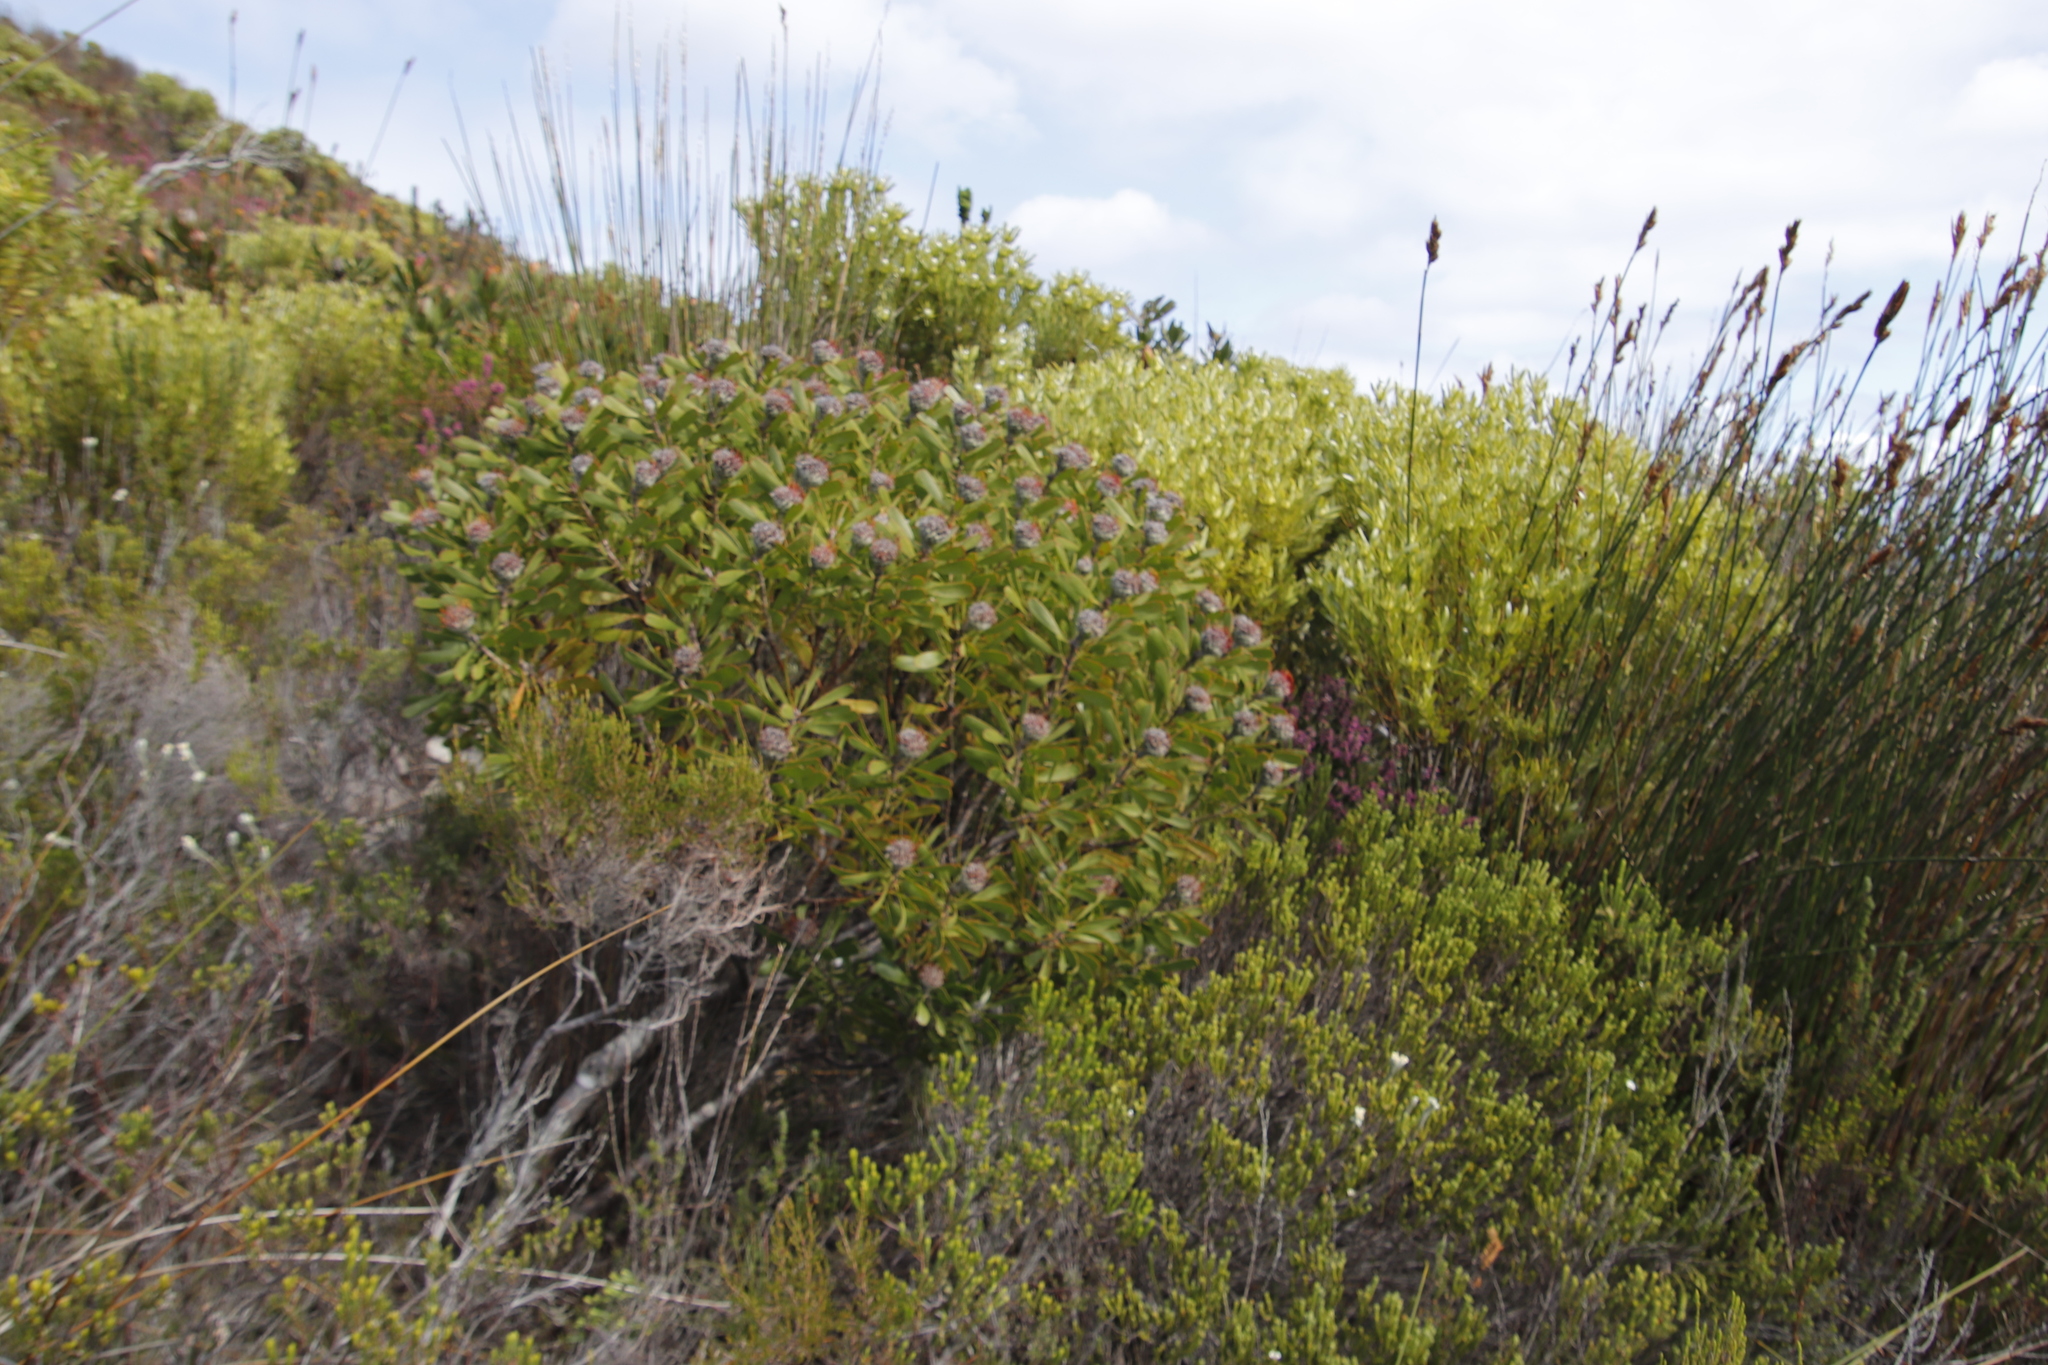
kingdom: Plantae
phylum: Tracheophyta
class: Magnoliopsida
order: Proteales
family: Proteaceae
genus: Leucospermum
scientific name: Leucospermum truncatum
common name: Limestone pincushion
